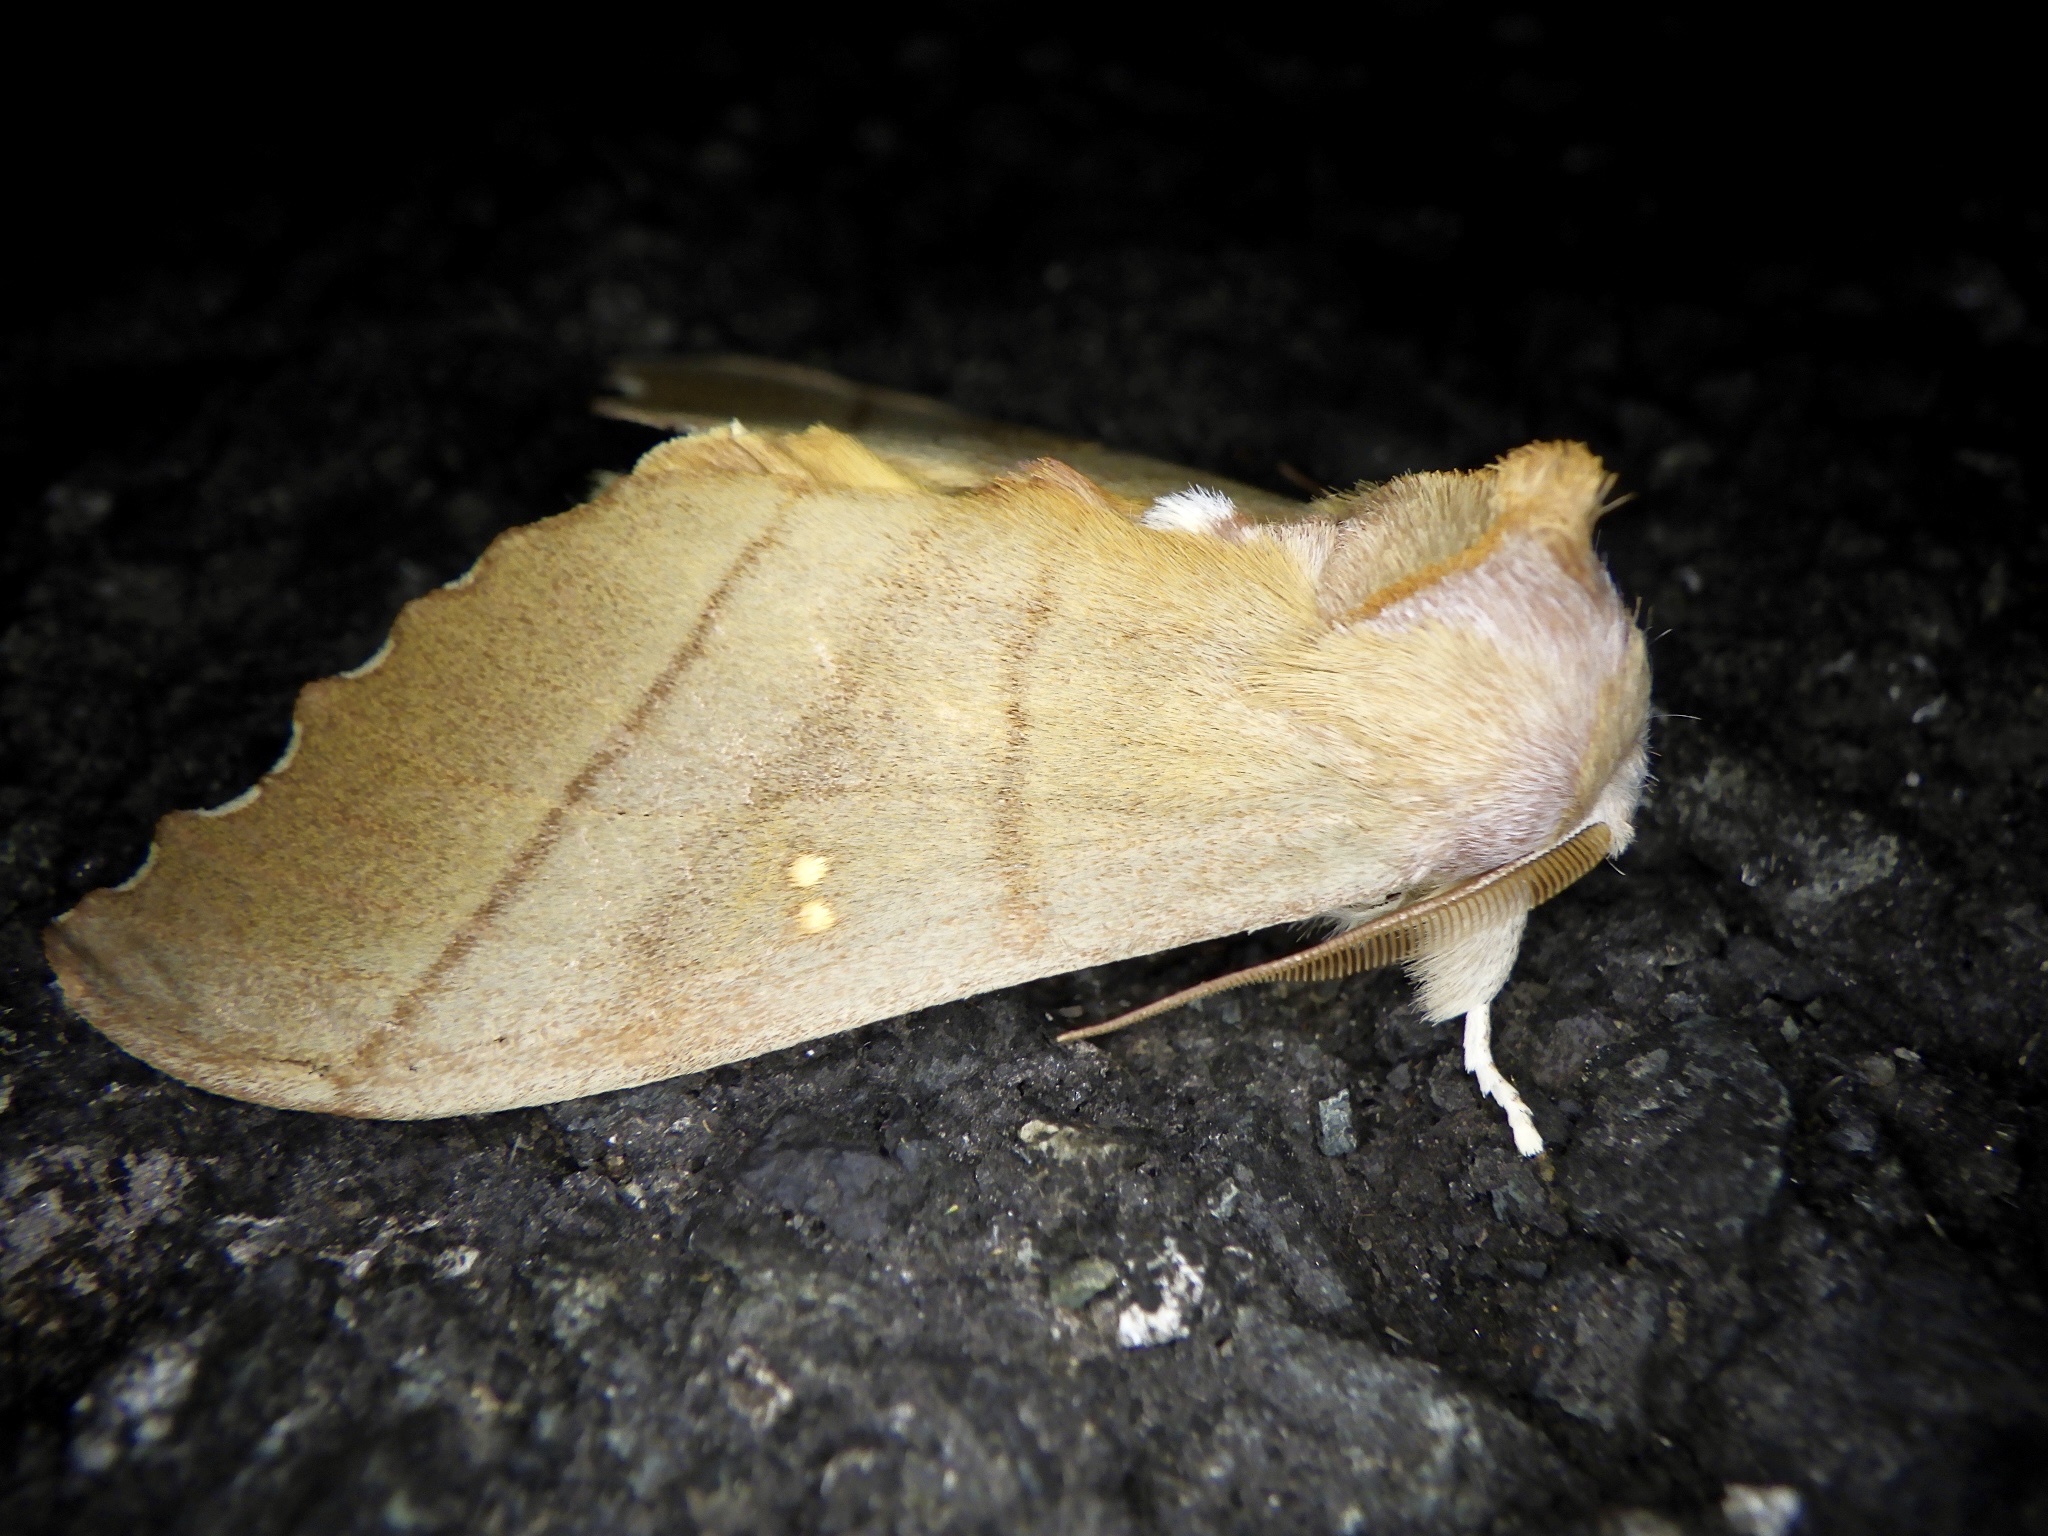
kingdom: Animalia
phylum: Arthropoda
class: Insecta
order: Lepidoptera
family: Notodontidae
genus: Euhampsonia
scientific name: Euhampsonia cristata
